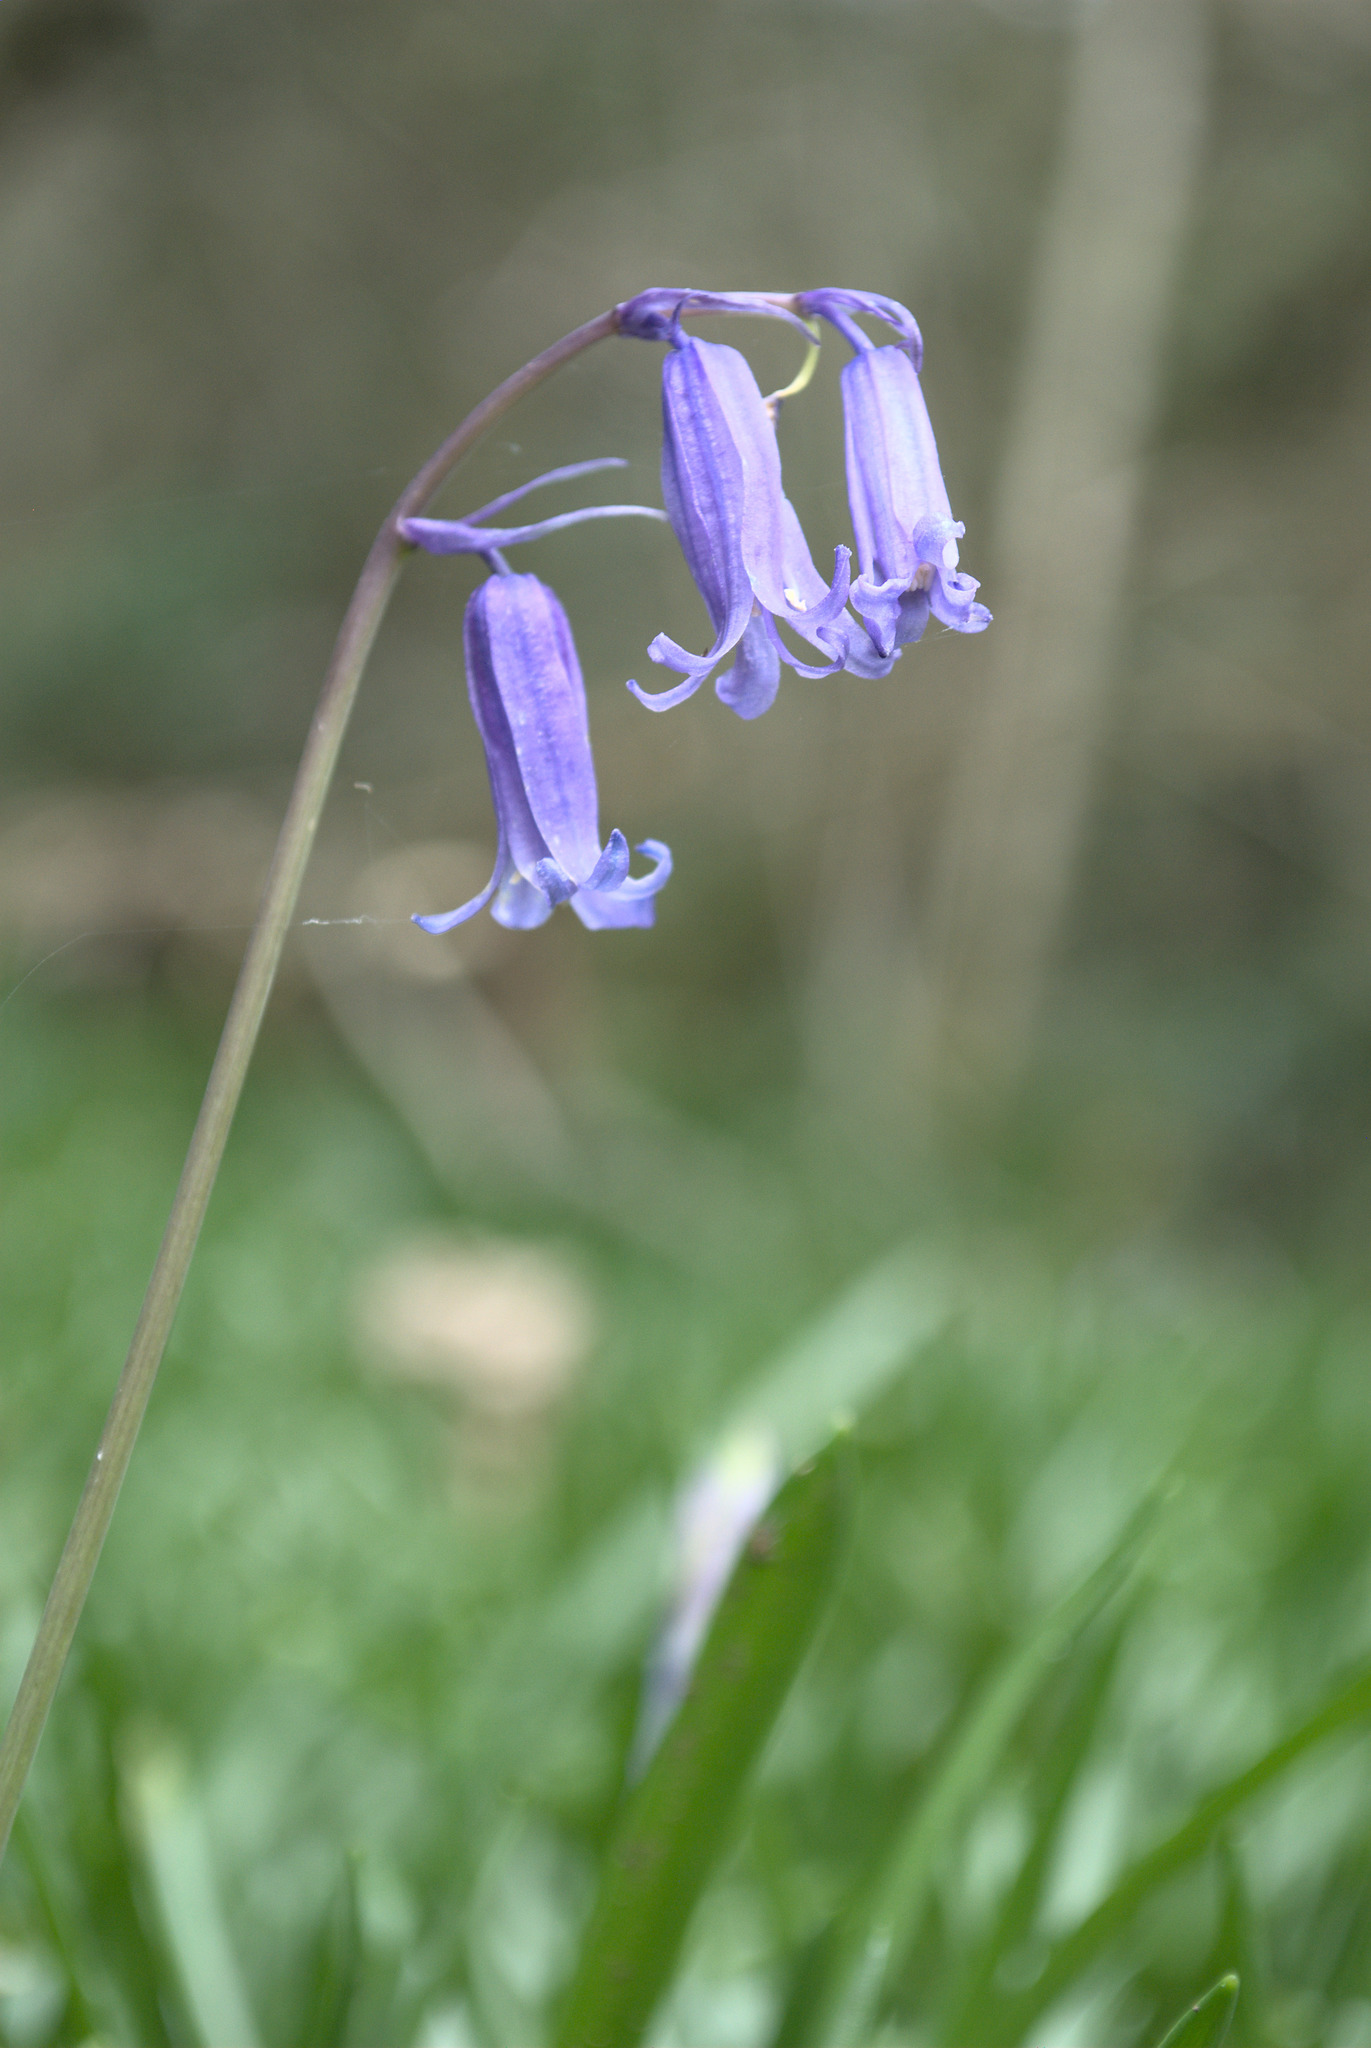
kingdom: Plantae
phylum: Tracheophyta
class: Liliopsida
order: Asparagales
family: Asparagaceae
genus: Hyacinthoides
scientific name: Hyacinthoides non-scripta
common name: Bluebell
